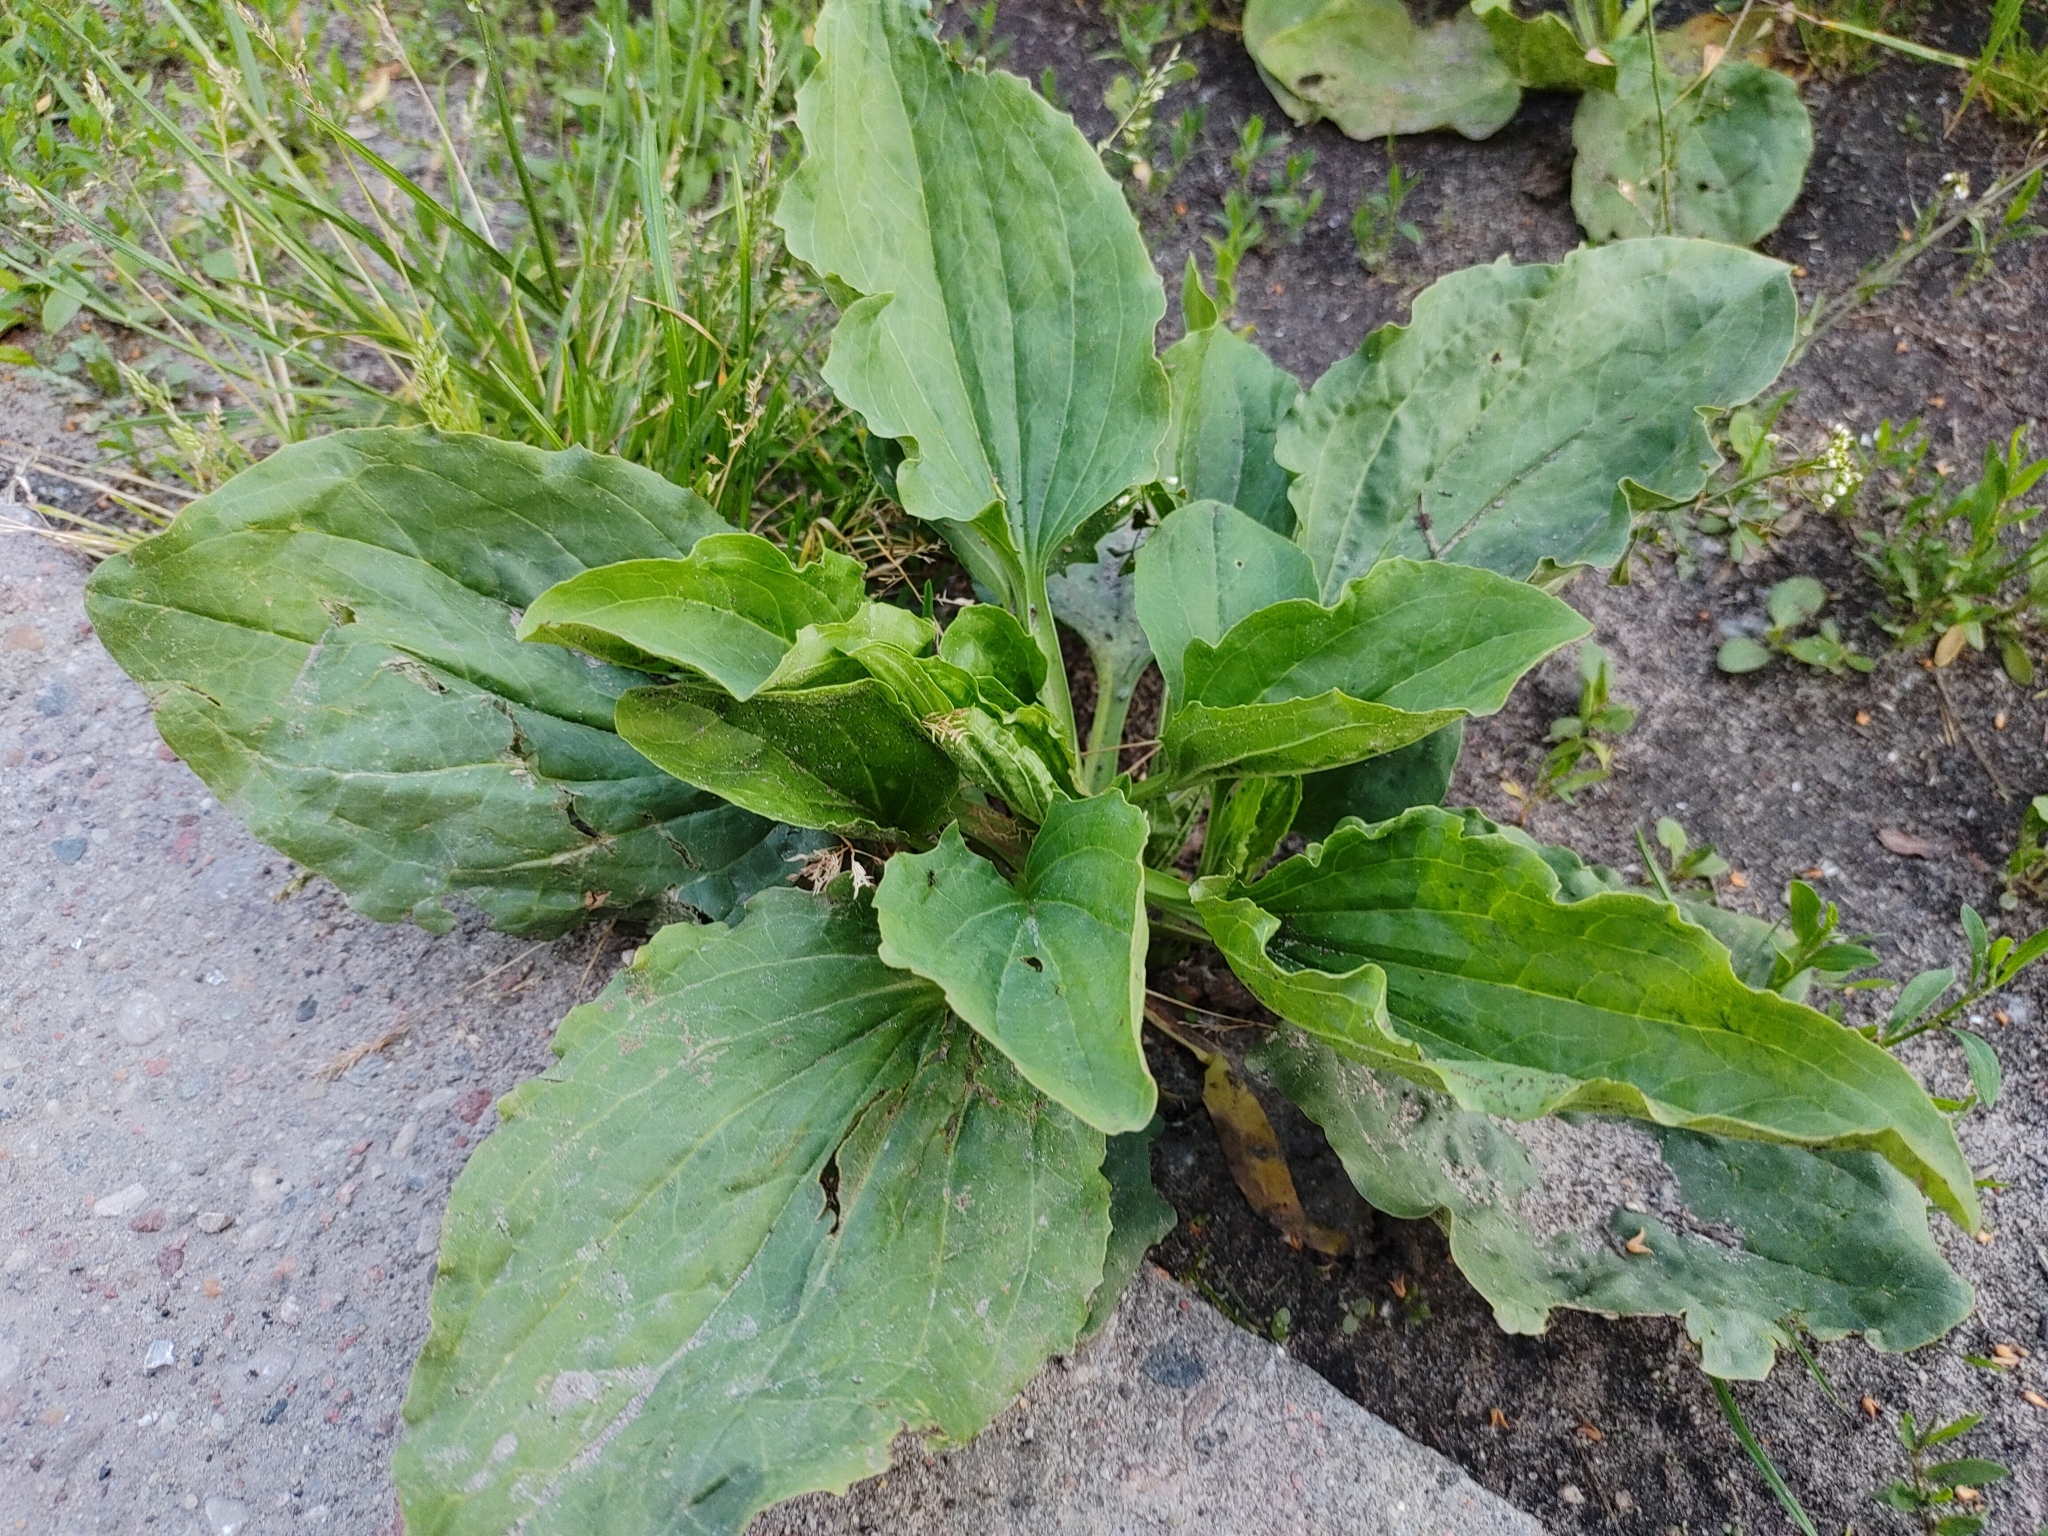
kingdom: Plantae
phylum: Tracheophyta
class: Magnoliopsida
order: Lamiales
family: Plantaginaceae
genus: Plantago
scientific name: Plantago major
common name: Common plantain
